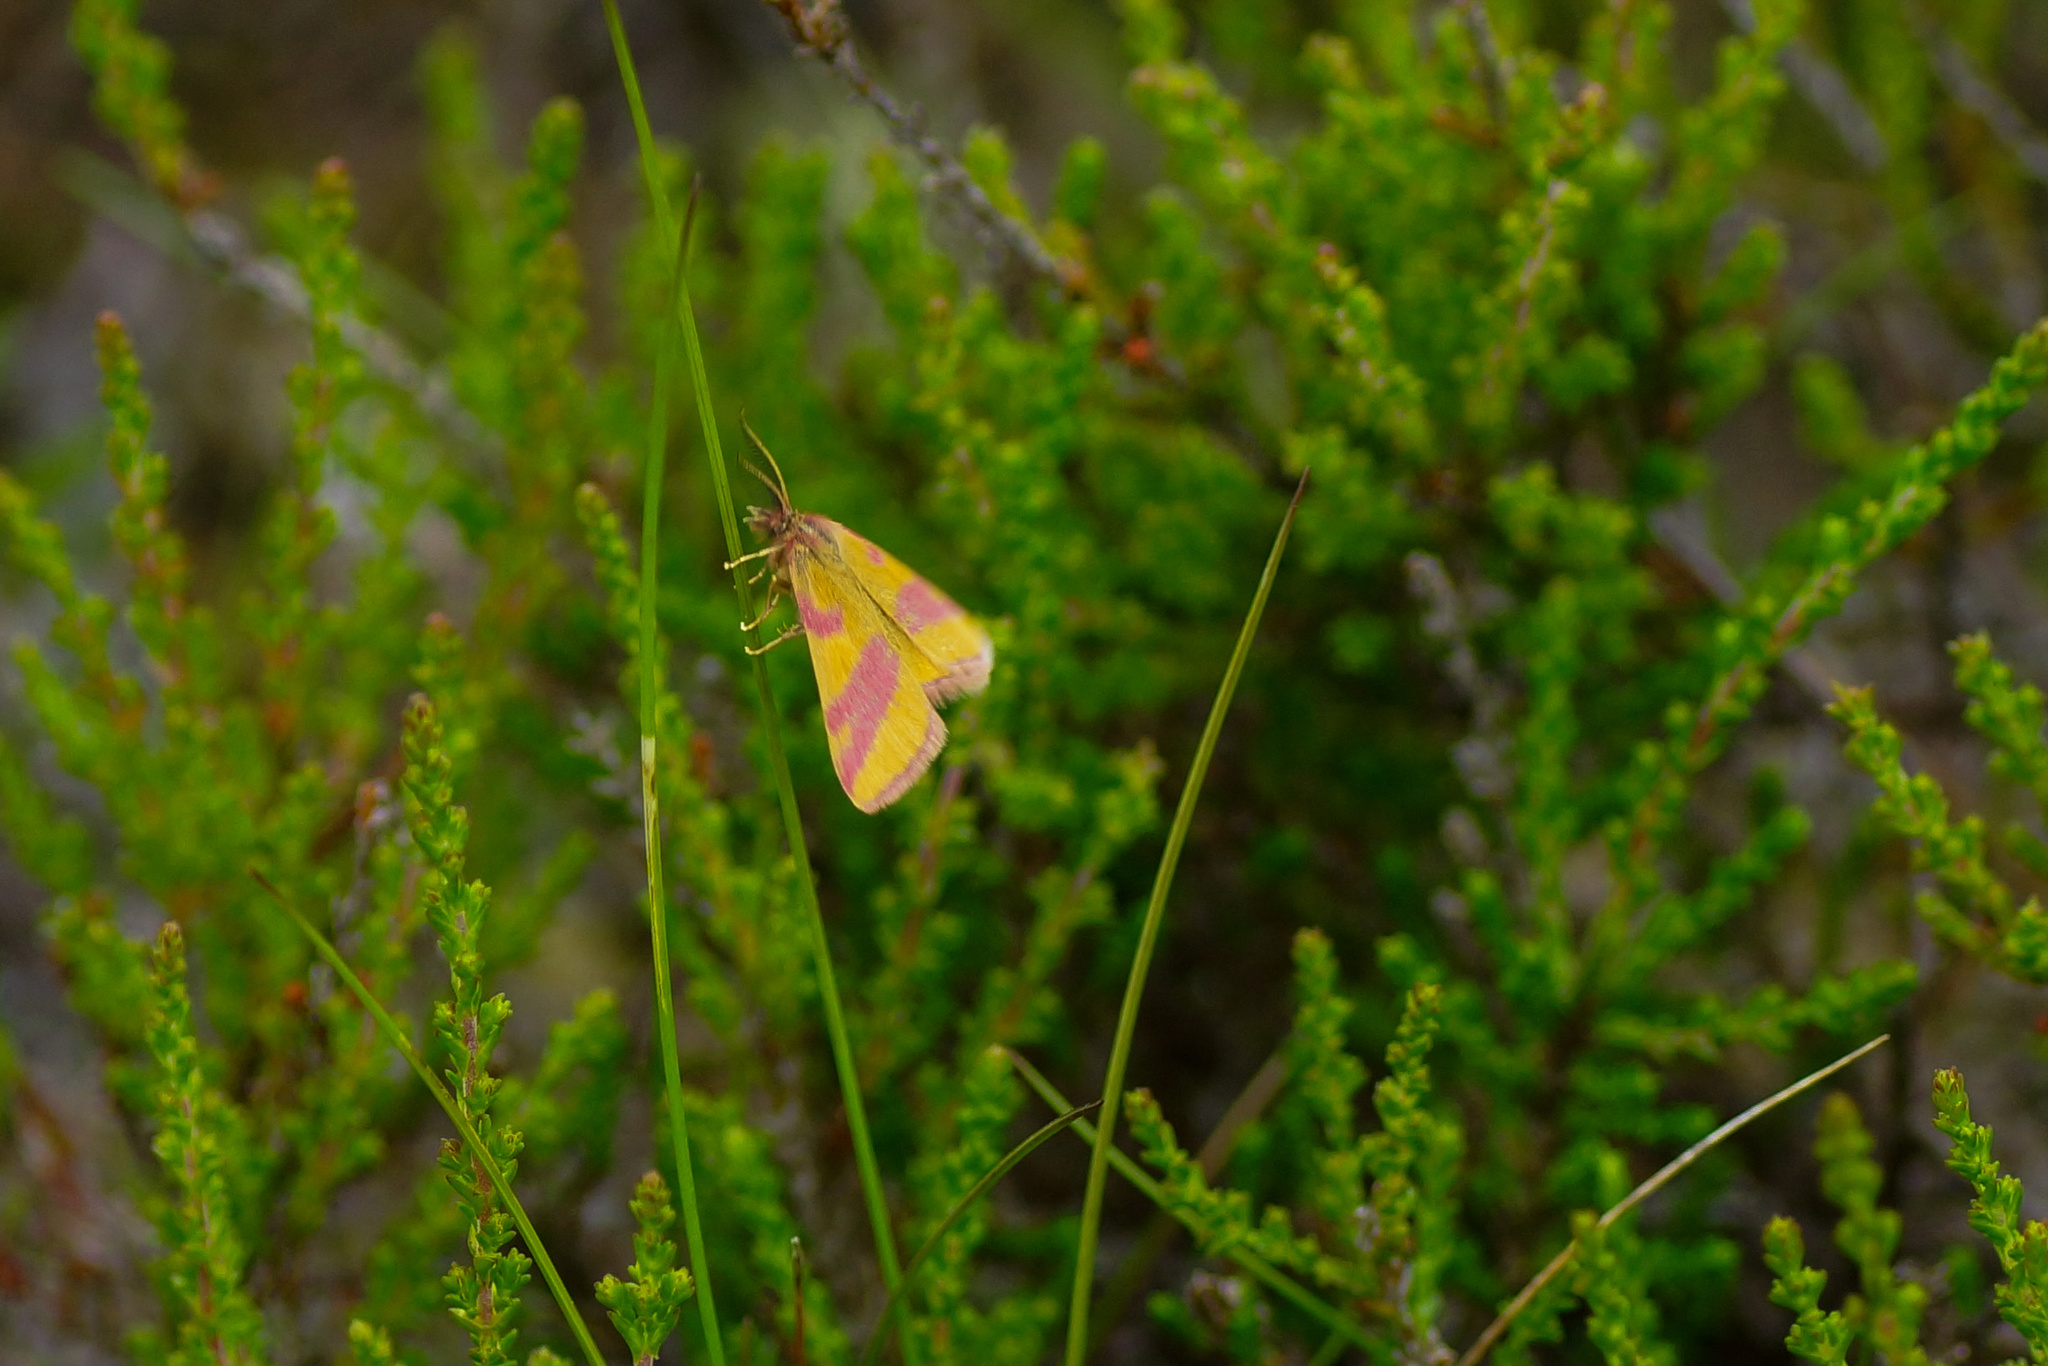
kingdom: Animalia
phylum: Arthropoda
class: Insecta
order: Lepidoptera
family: Geometridae
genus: Lythria
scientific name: Lythria cruentaria
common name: Purple-barred yellow
